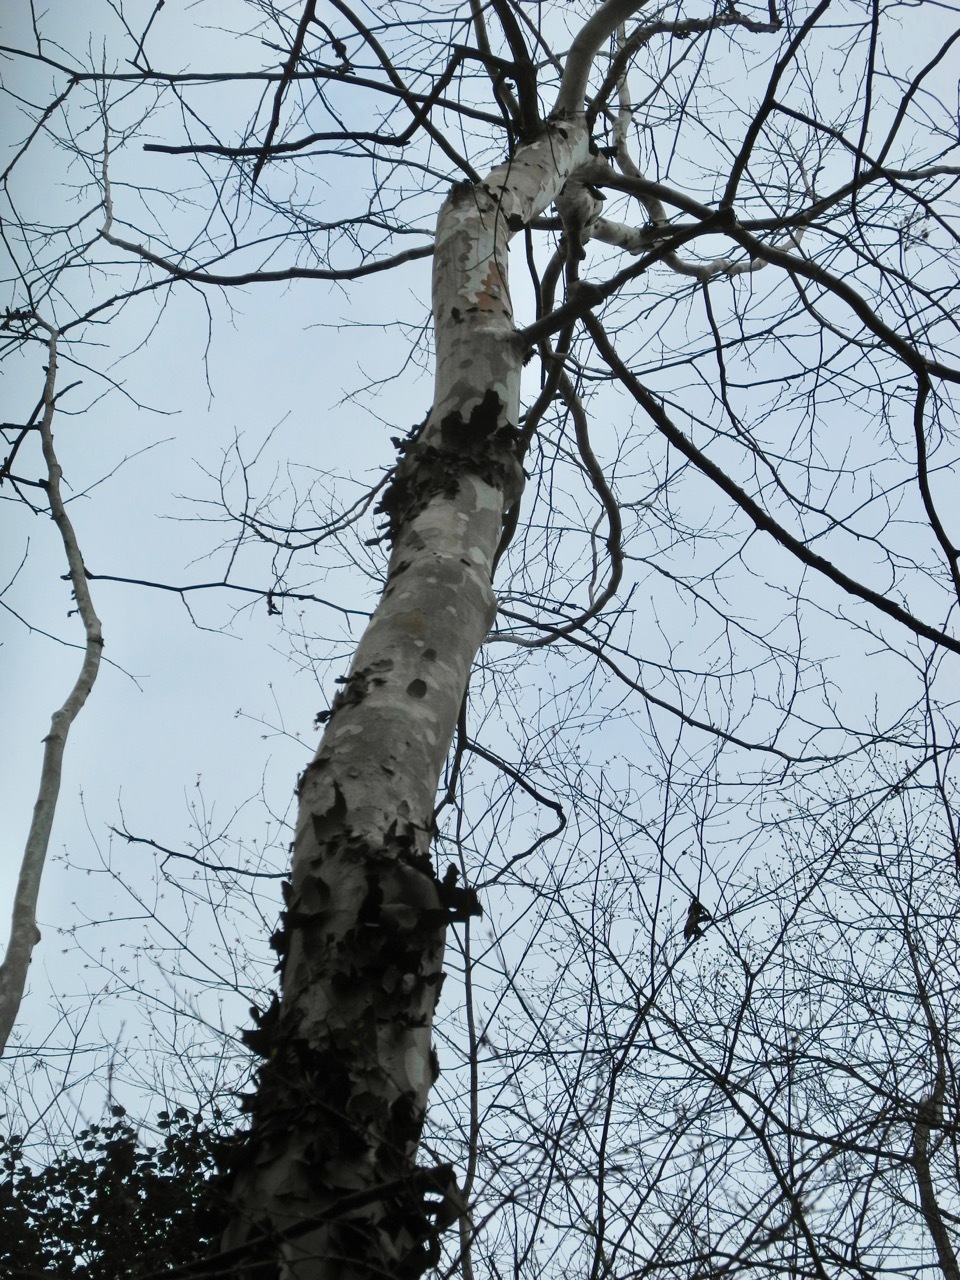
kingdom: Plantae
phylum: Tracheophyta
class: Magnoliopsida
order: Proteales
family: Platanaceae
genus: Platanus
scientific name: Platanus occidentalis
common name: American sycamore
